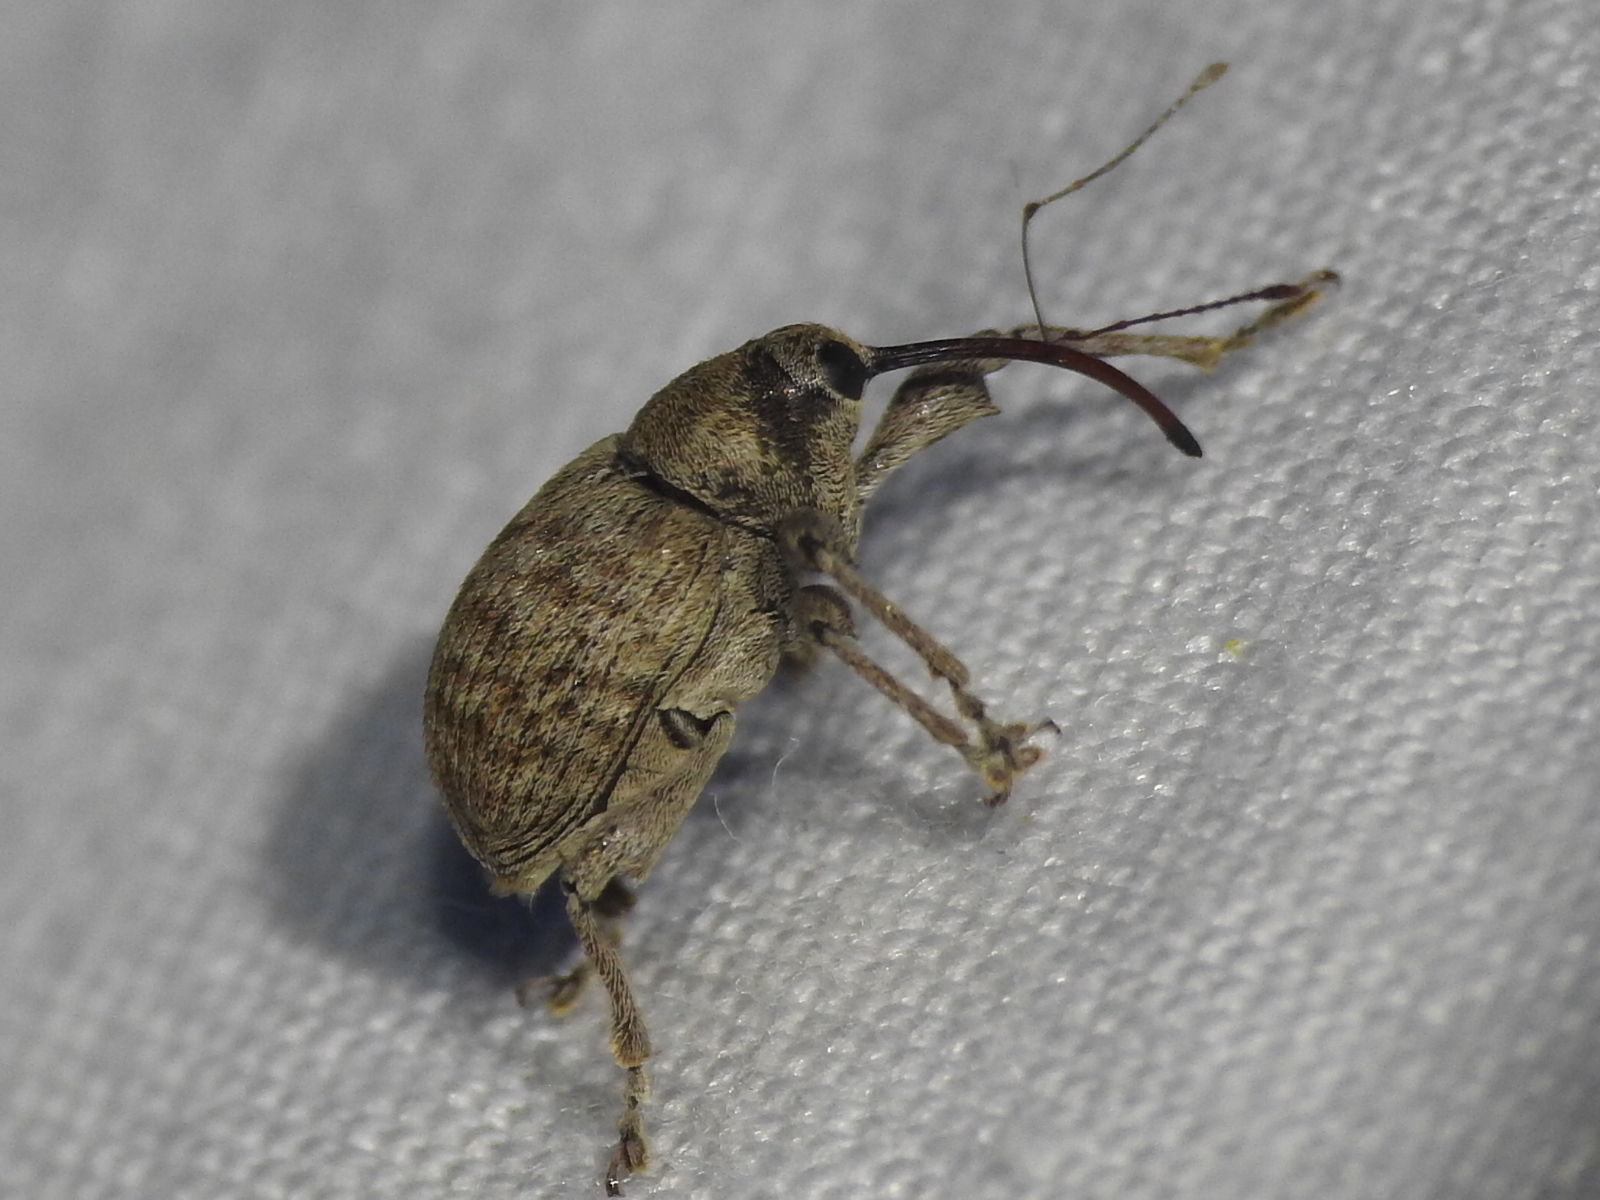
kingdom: Animalia
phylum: Arthropoda
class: Insecta
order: Coleoptera
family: Curculionidae
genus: Curculio
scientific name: Curculio
